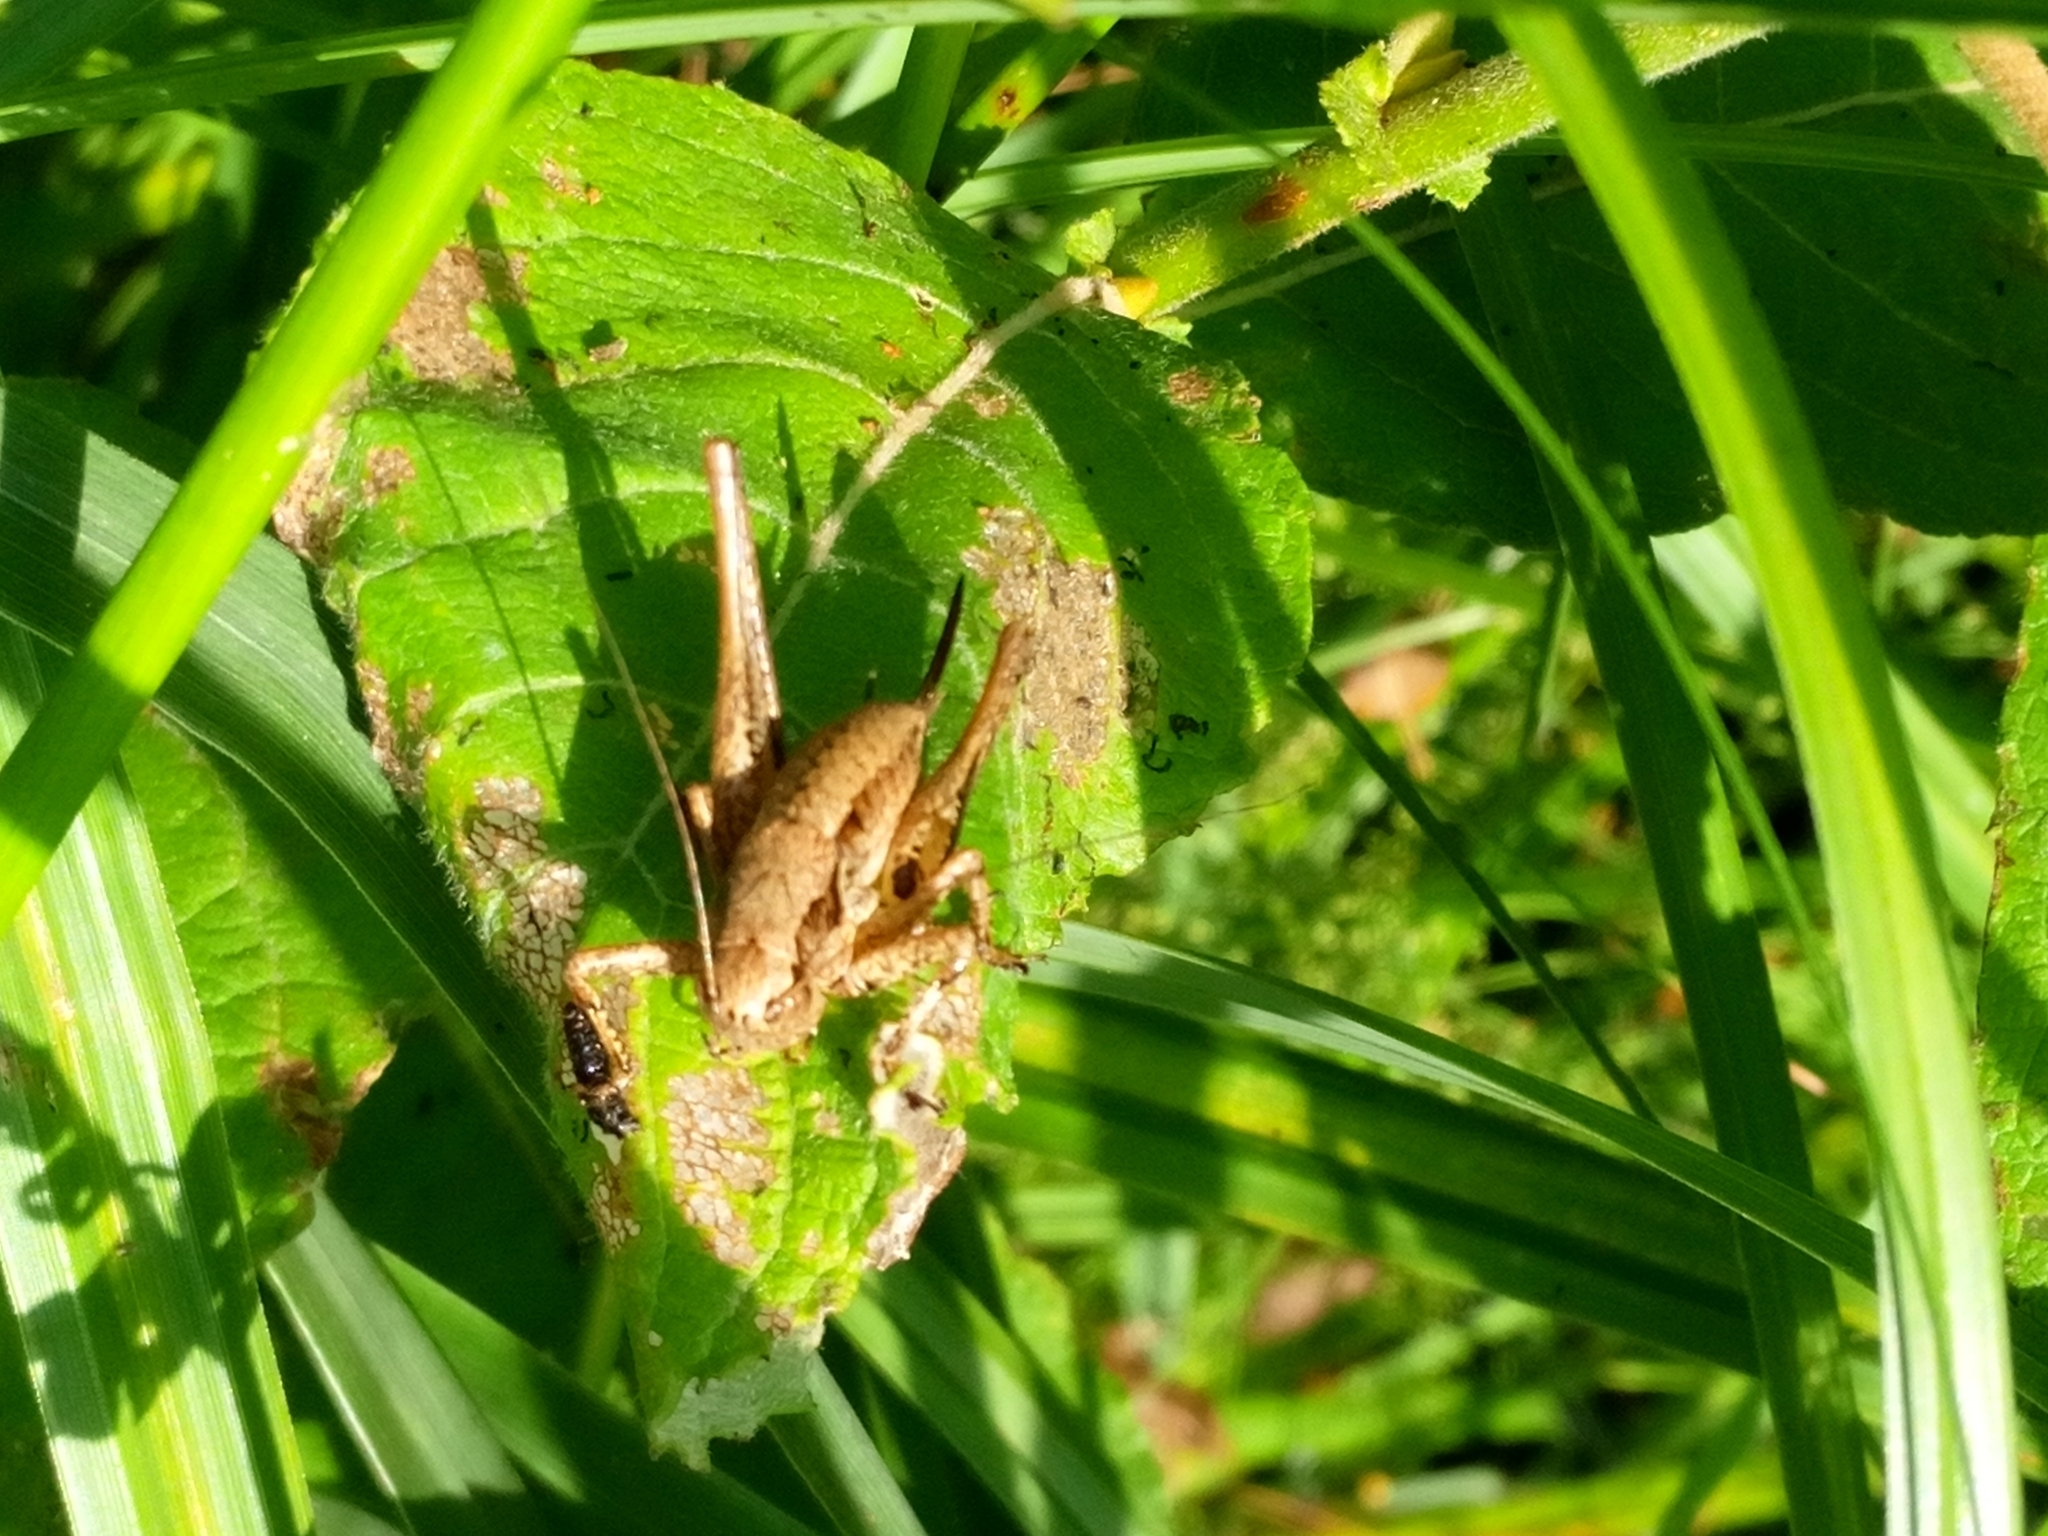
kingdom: Animalia
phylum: Arthropoda
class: Insecta
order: Orthoptera
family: Tettigoniidae
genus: Pholidoptera
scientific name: Pholidoptera griseoaptera
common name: Dark bush-cricket
